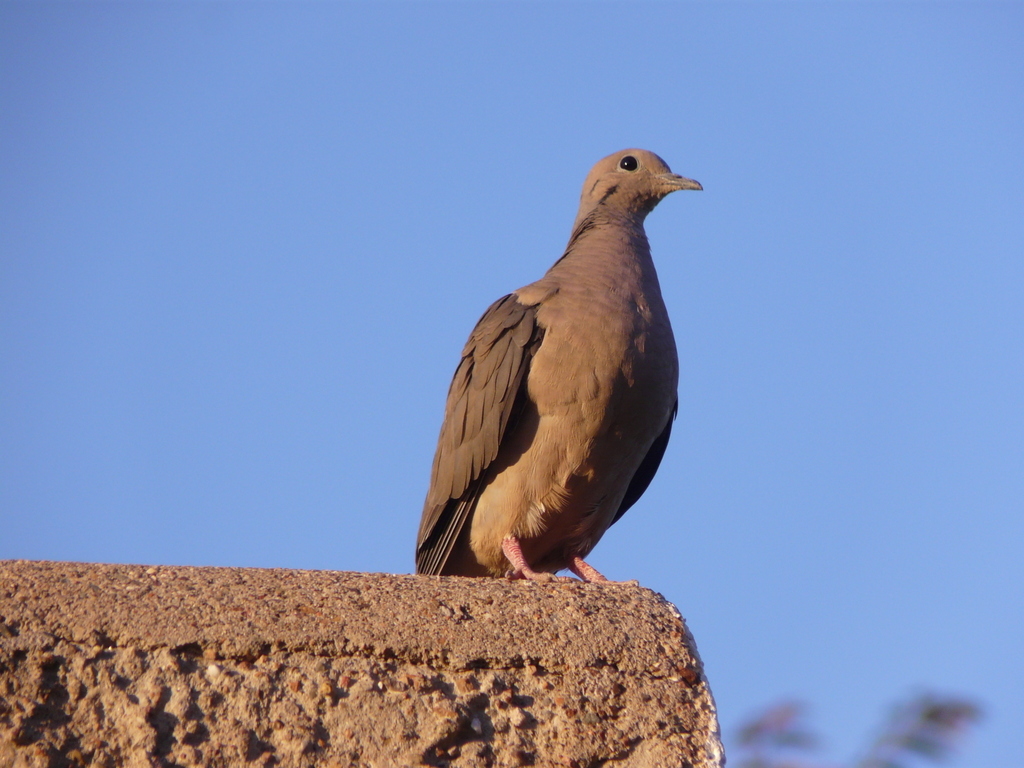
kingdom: Animalia
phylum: Chordata
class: Aves
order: Columbiformes
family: Columbidae
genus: Zenaida
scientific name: Zenaida auriculata
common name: Eared dove
